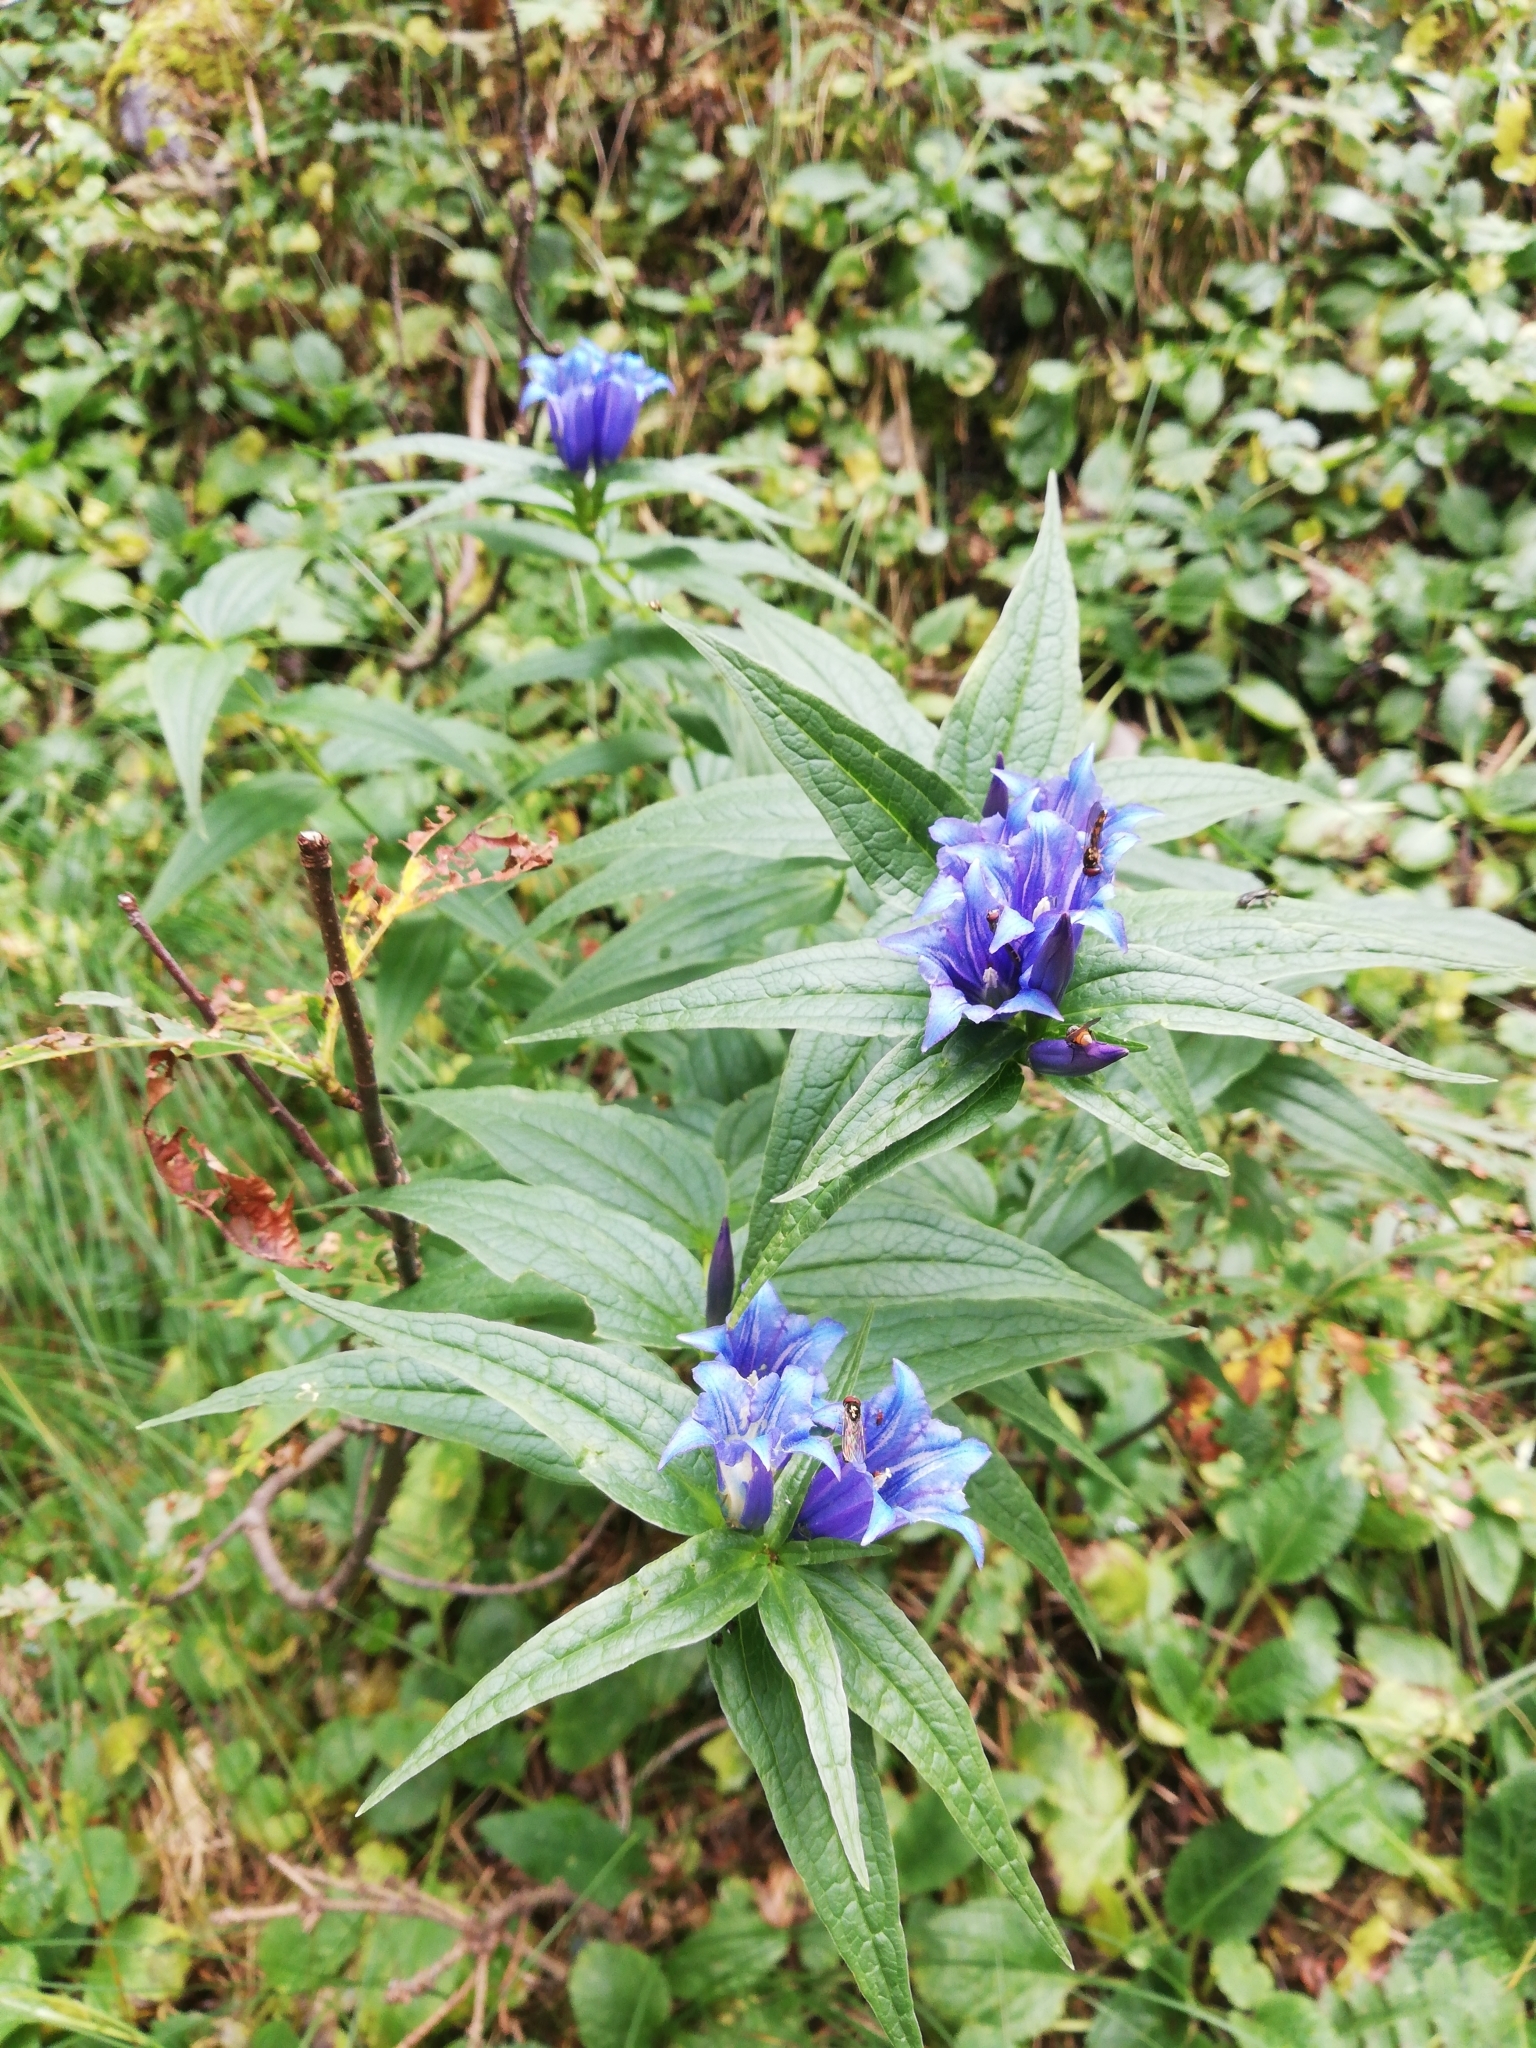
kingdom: Plantae
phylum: Tracheophyta
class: Magnoliopsida
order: Gentianales
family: Gentianaceae
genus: Gentiana
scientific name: Gentiana asclepiadea
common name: Willow gentian
